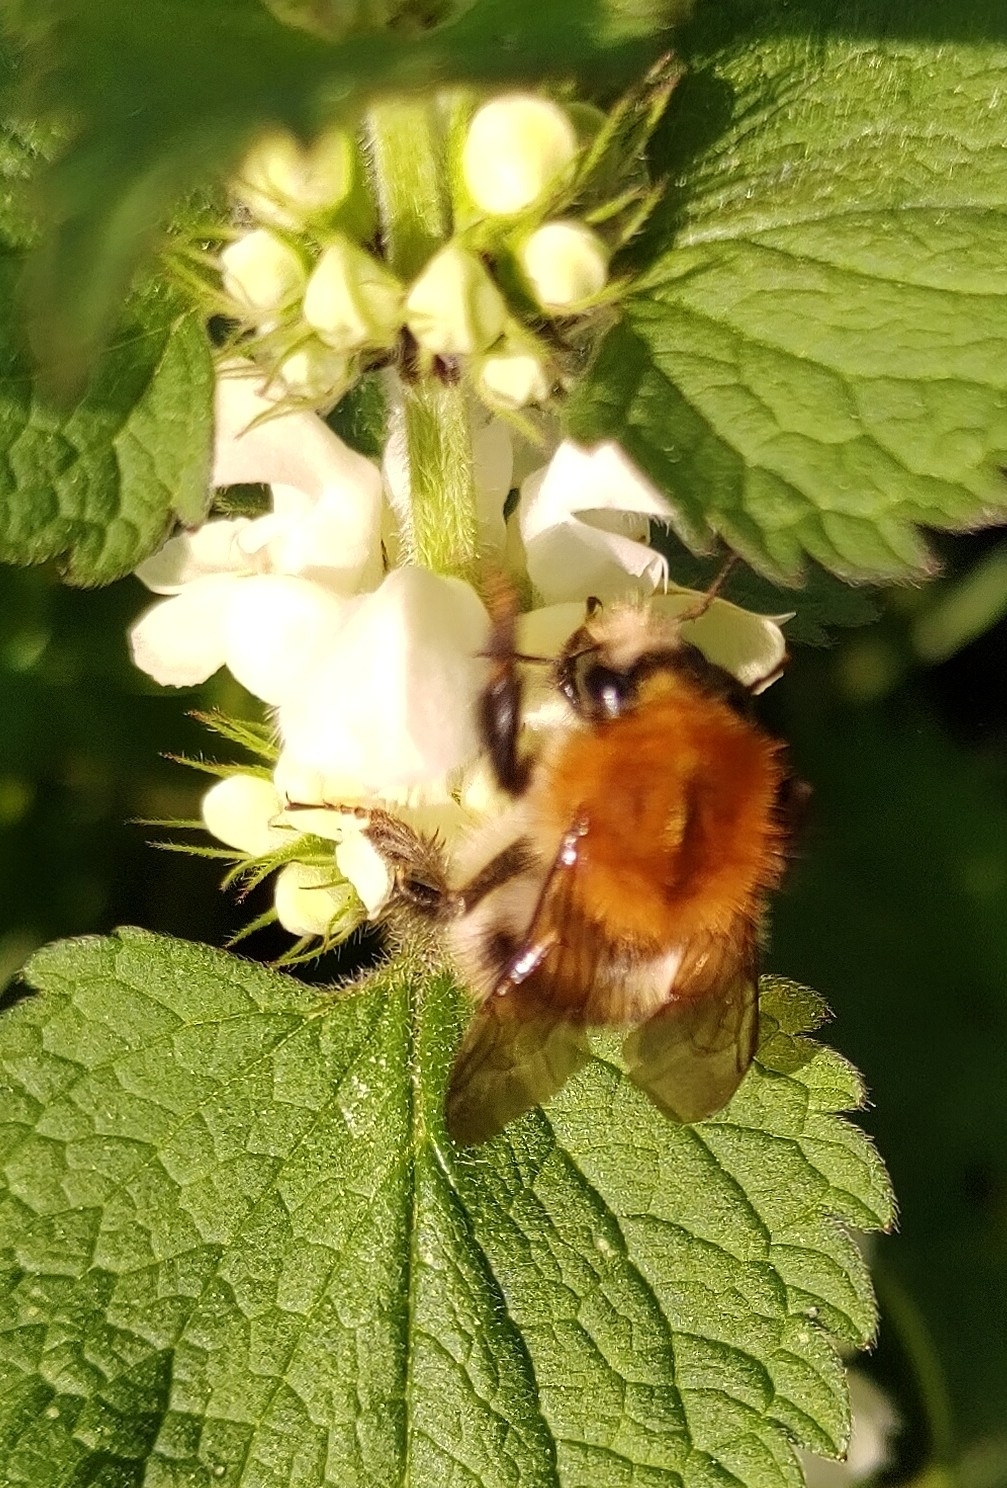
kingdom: Animalia
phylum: Arthropoda
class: Insecta
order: Hymenoptera
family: Apidae
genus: Bombus
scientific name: Bombus pascuorum
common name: Common carder bee
